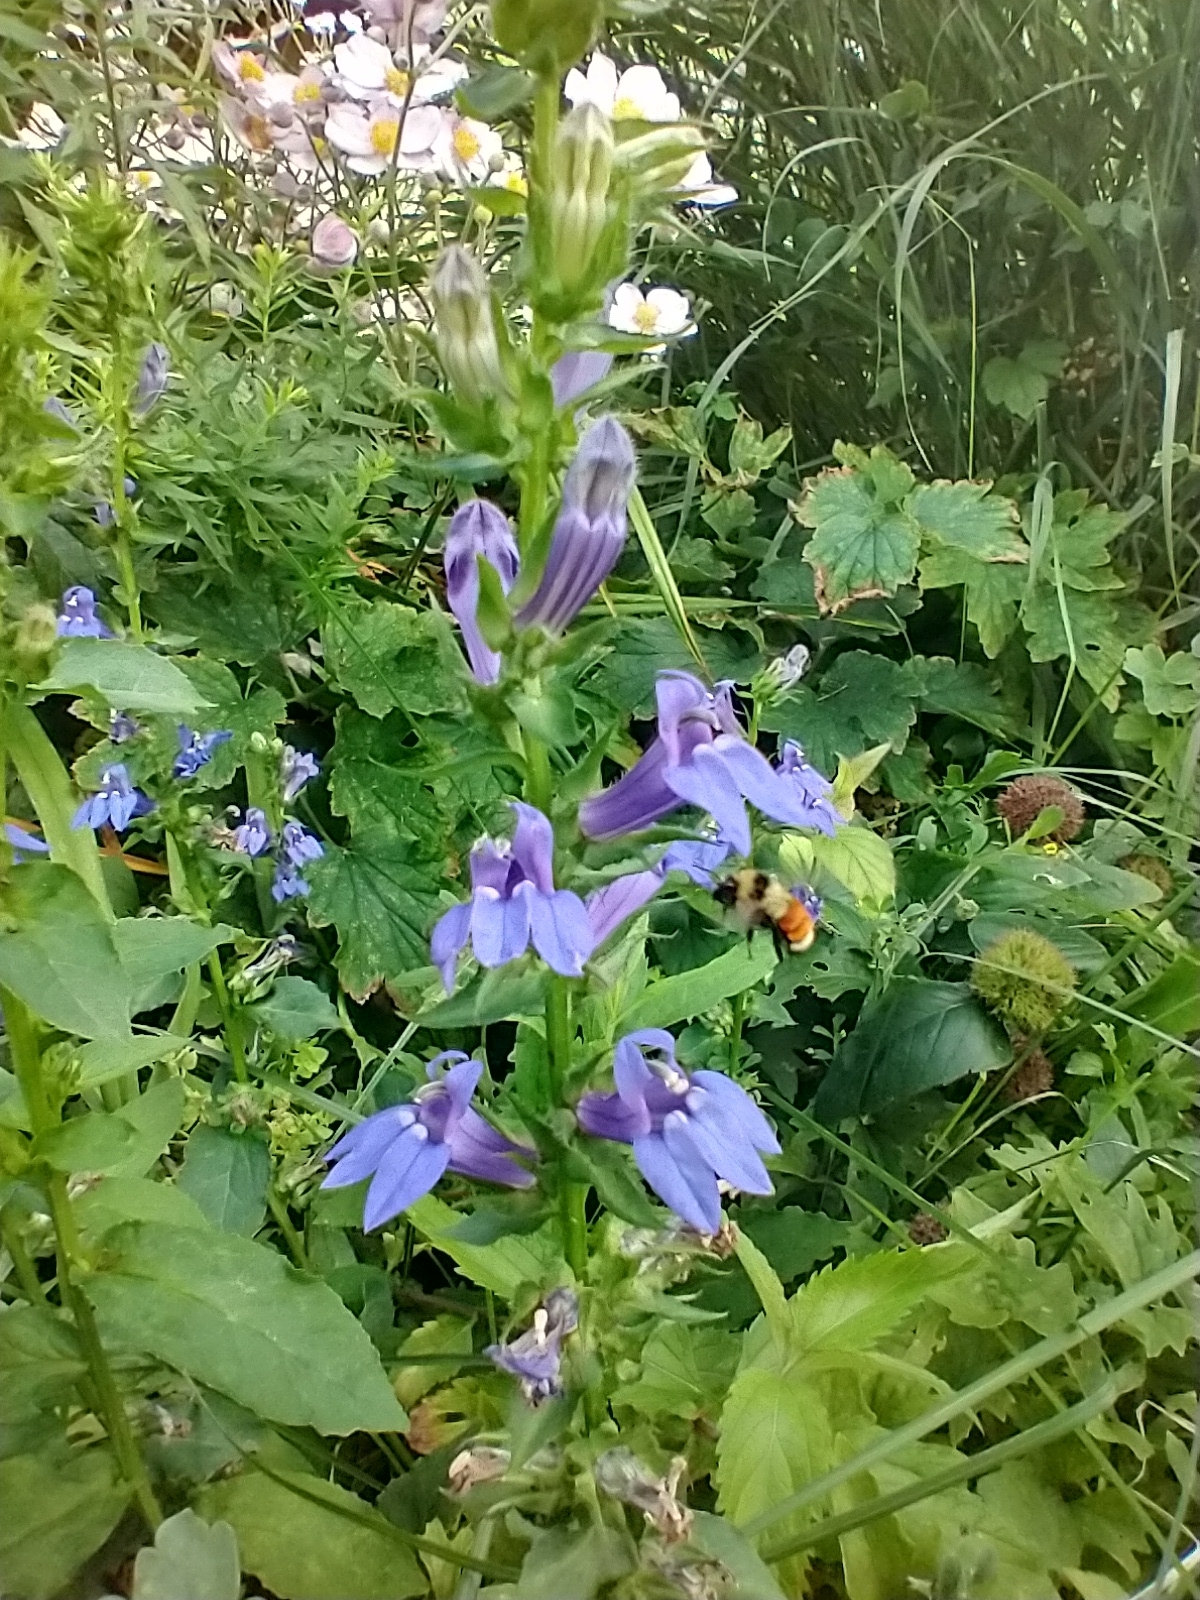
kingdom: Animalia
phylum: Arthropoda
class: Insecta
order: Hymenoptera
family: Apidae
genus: Bombus
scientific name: Bombus huntii
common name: Hunt bumble bee
